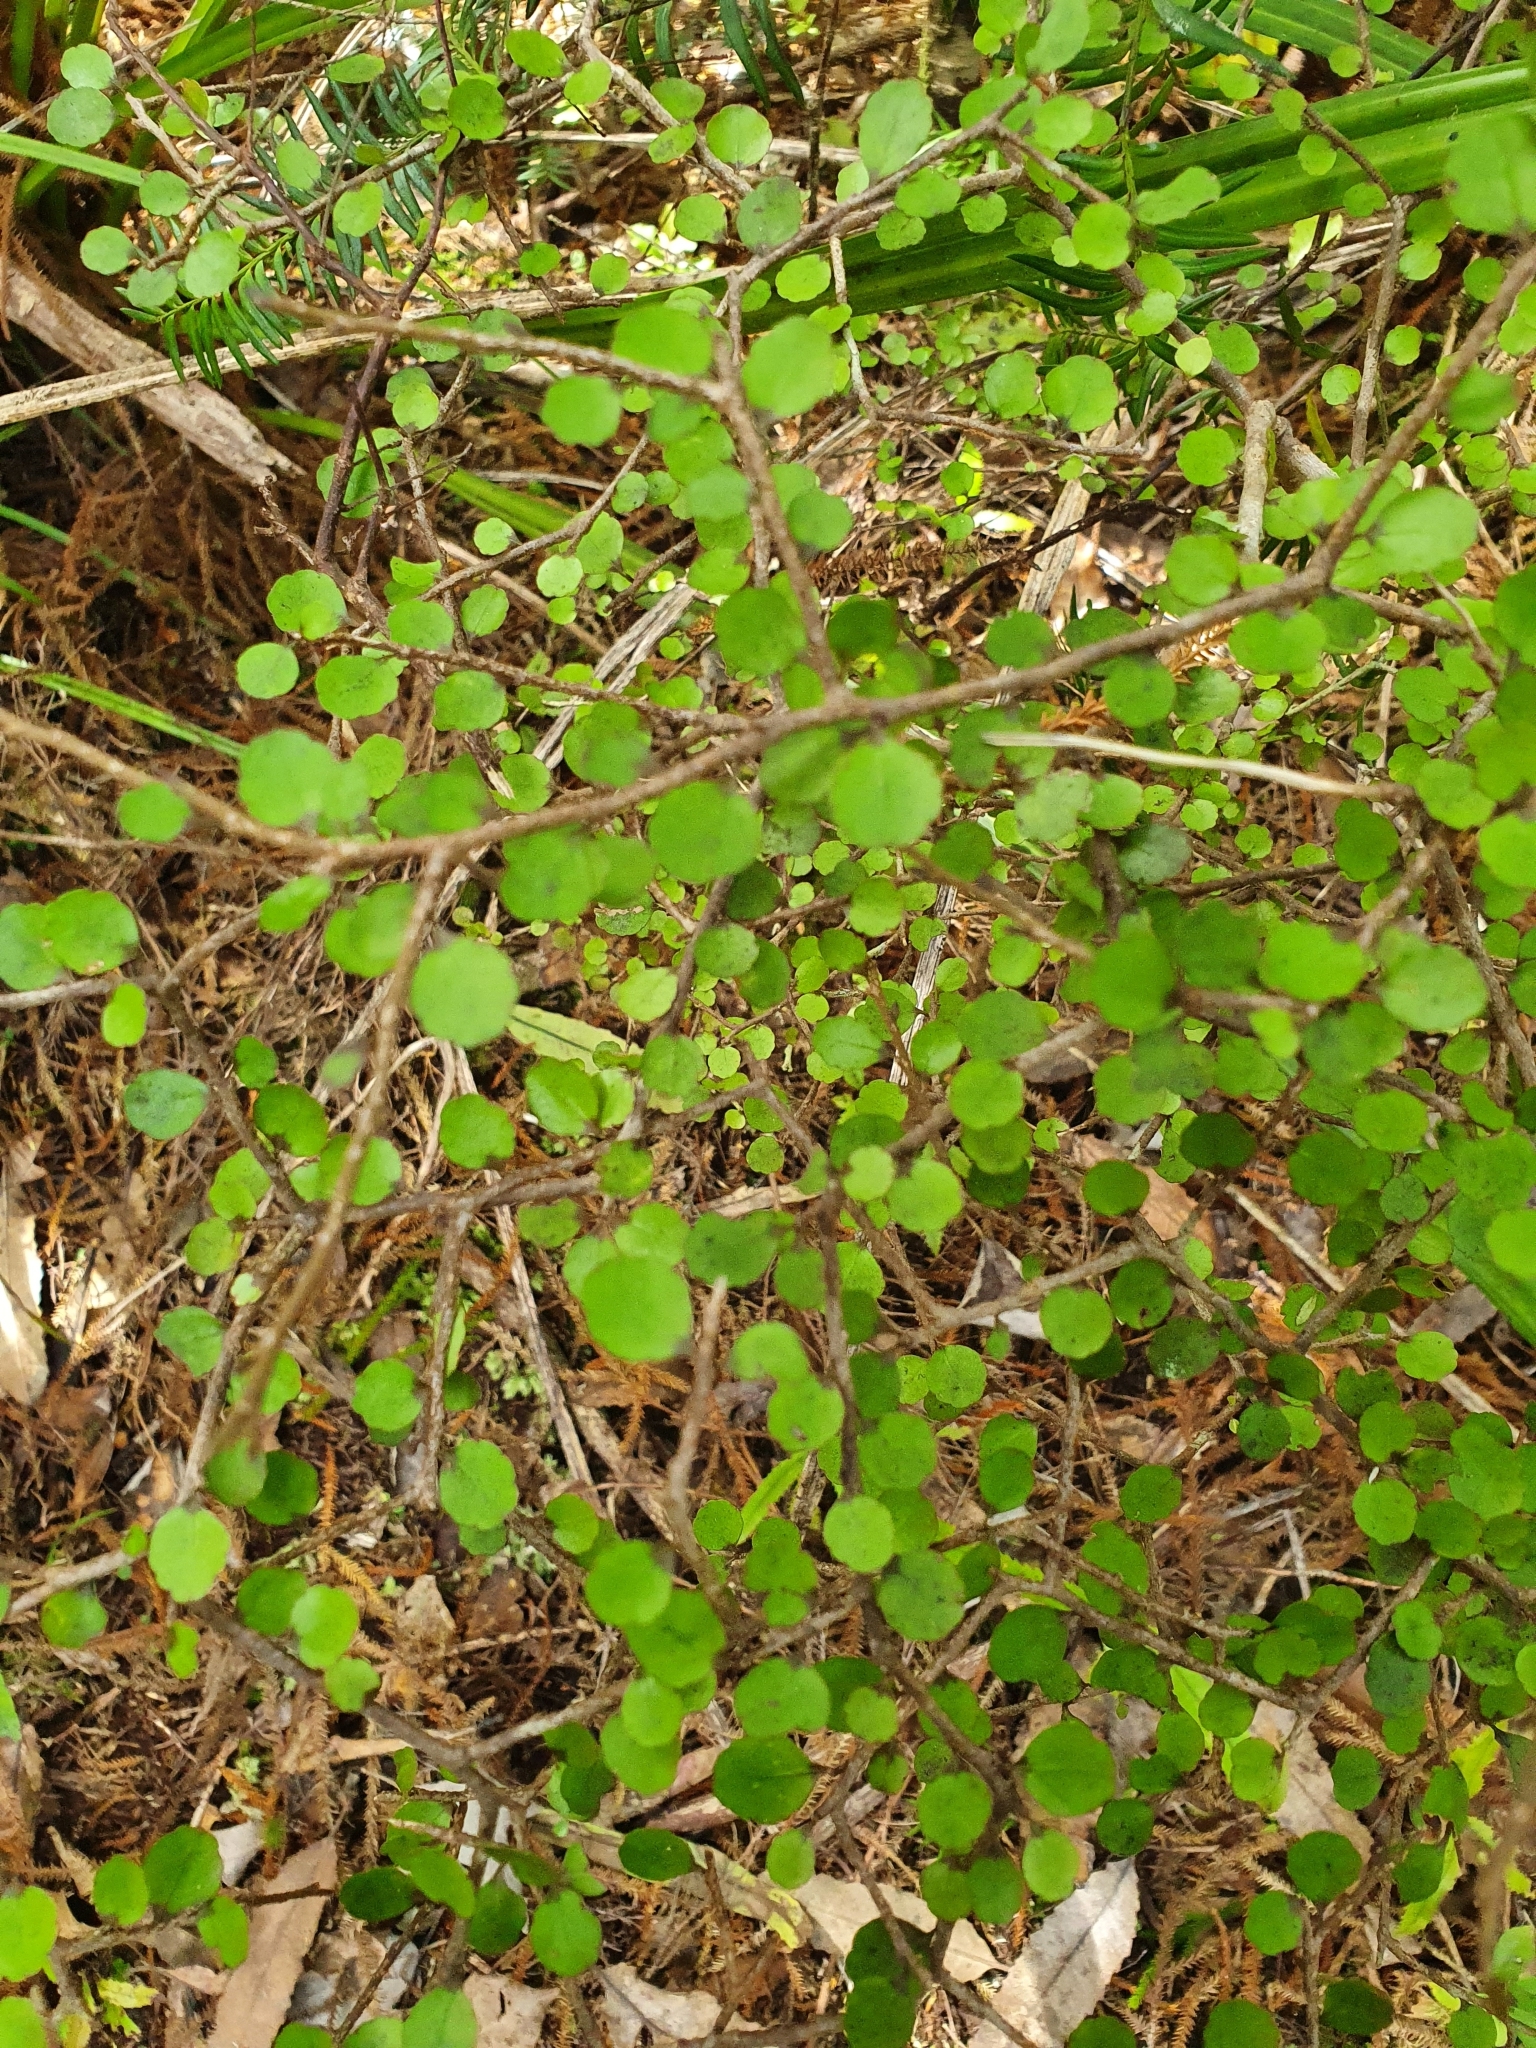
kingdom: Plantae
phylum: Tracheophyta
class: Magnoliopsida
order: Sapindales
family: Rutaceae
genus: Melicope
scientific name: Melicope simplex
